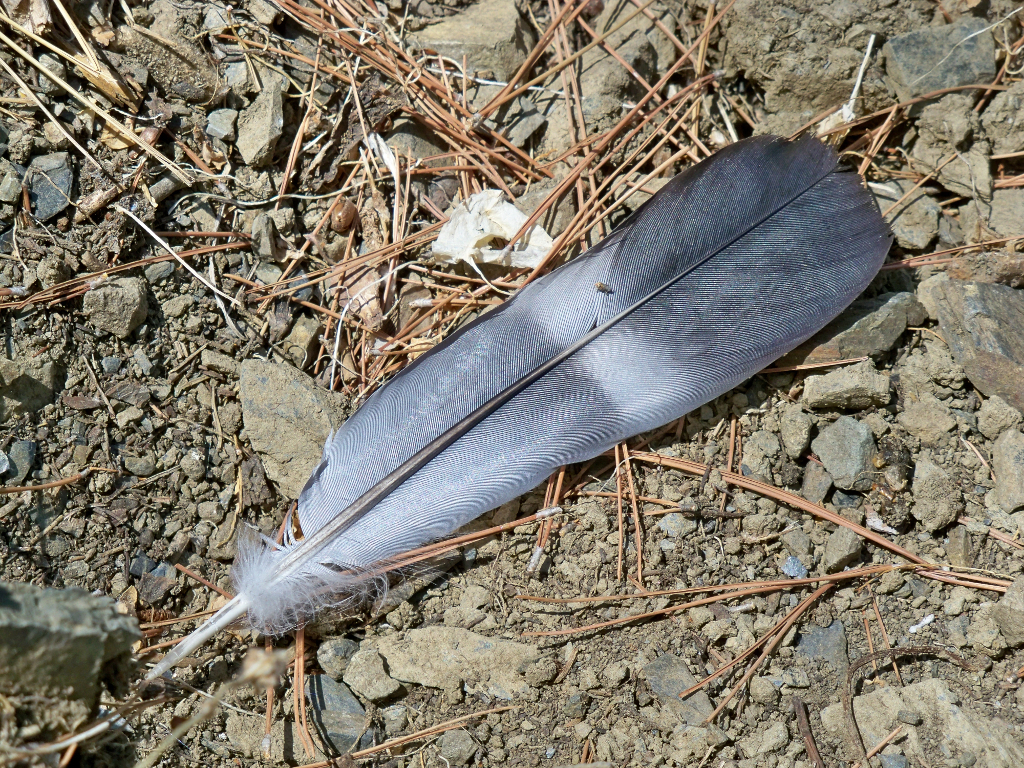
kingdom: Animalia
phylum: Chordata
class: Aves
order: Columbiformes
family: Columbidae
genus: Columba
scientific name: Columba palumbus
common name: Common wood pigeon
